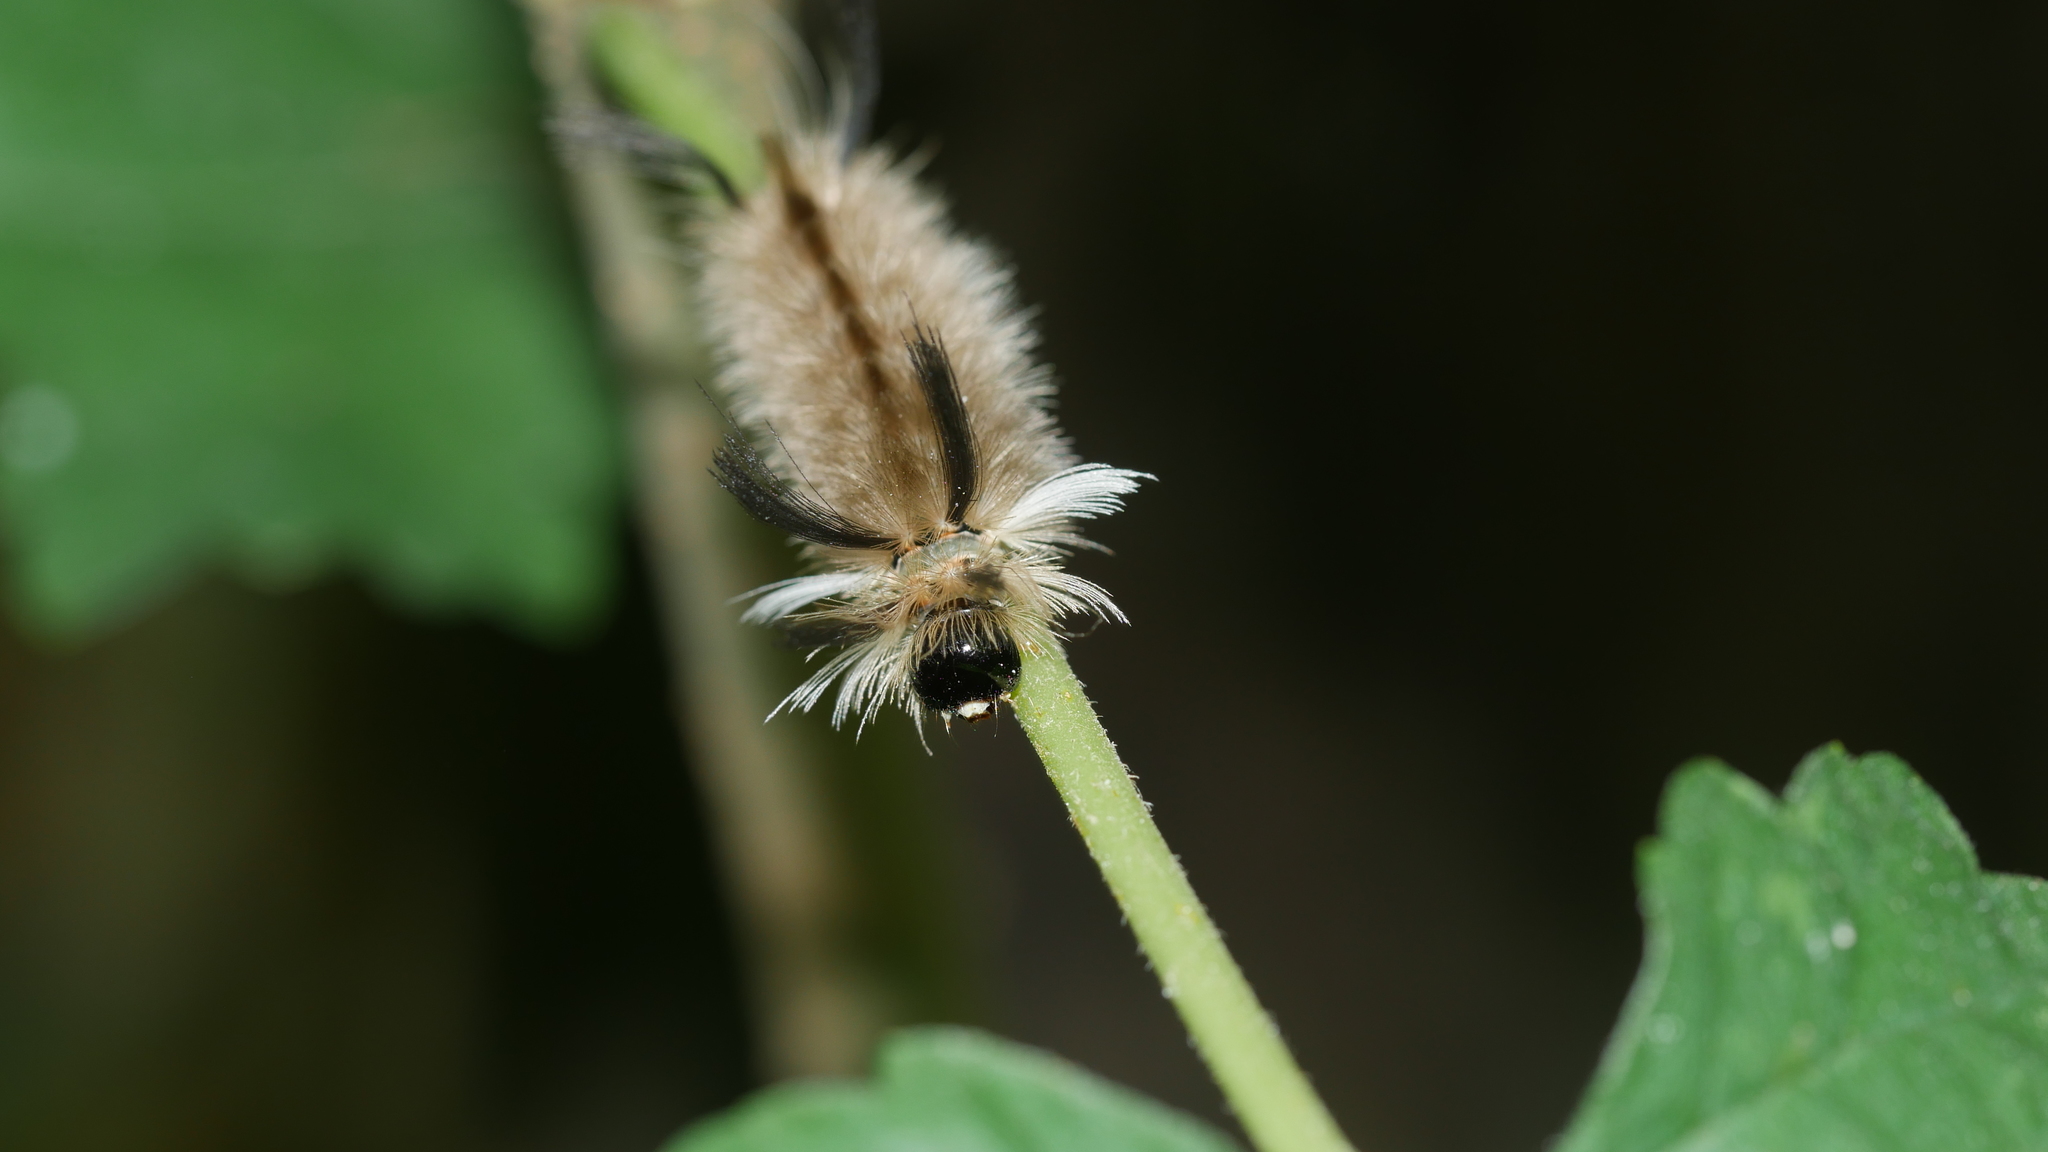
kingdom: Animalia
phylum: Arthropoda
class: Insecta
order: Lepidoptera
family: Erebidae
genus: Halysidota
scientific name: Halysidota tessellaris
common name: Banded tussock moth
